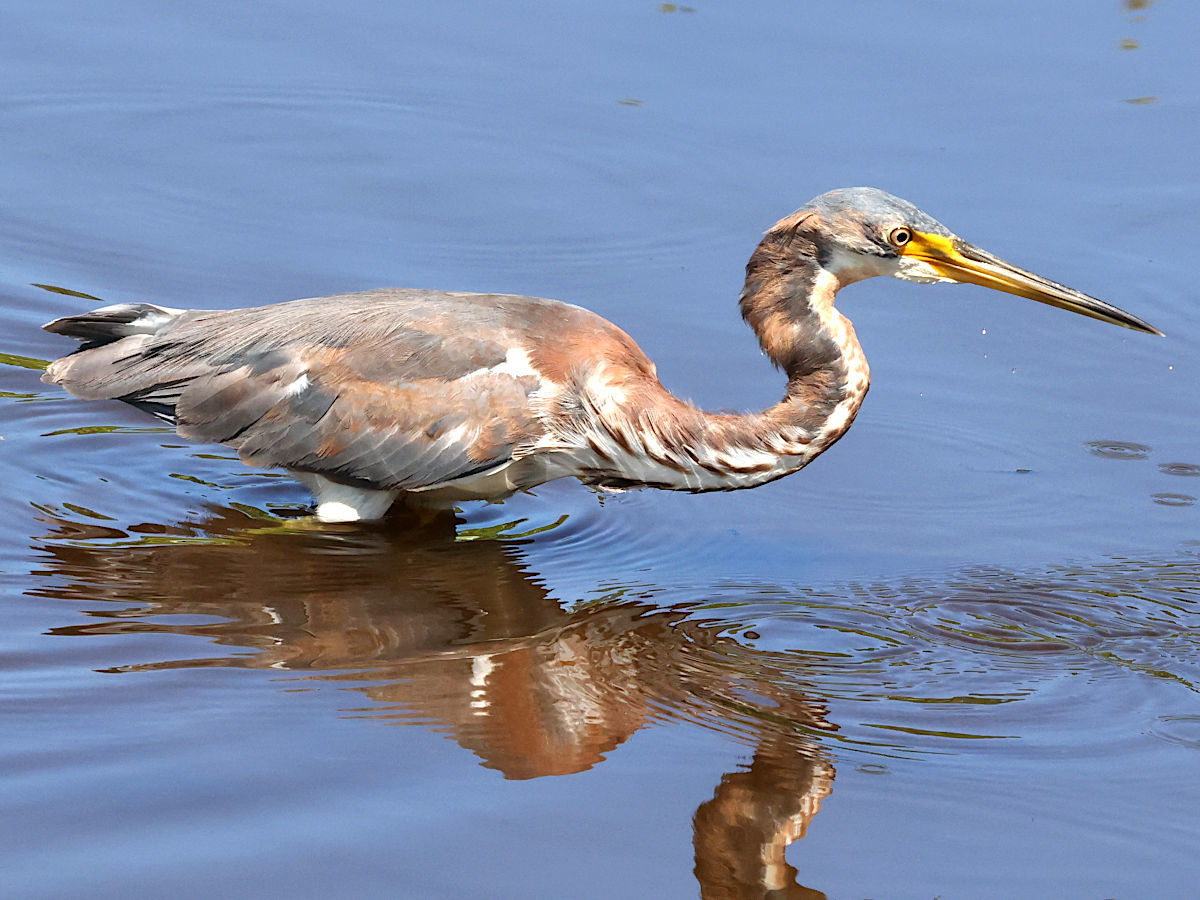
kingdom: Animalia
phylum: Chordata
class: Aves
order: Pelecaniformes
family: Ardeidae
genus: Egretta
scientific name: Egretta tricolor
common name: Tricolored heron
